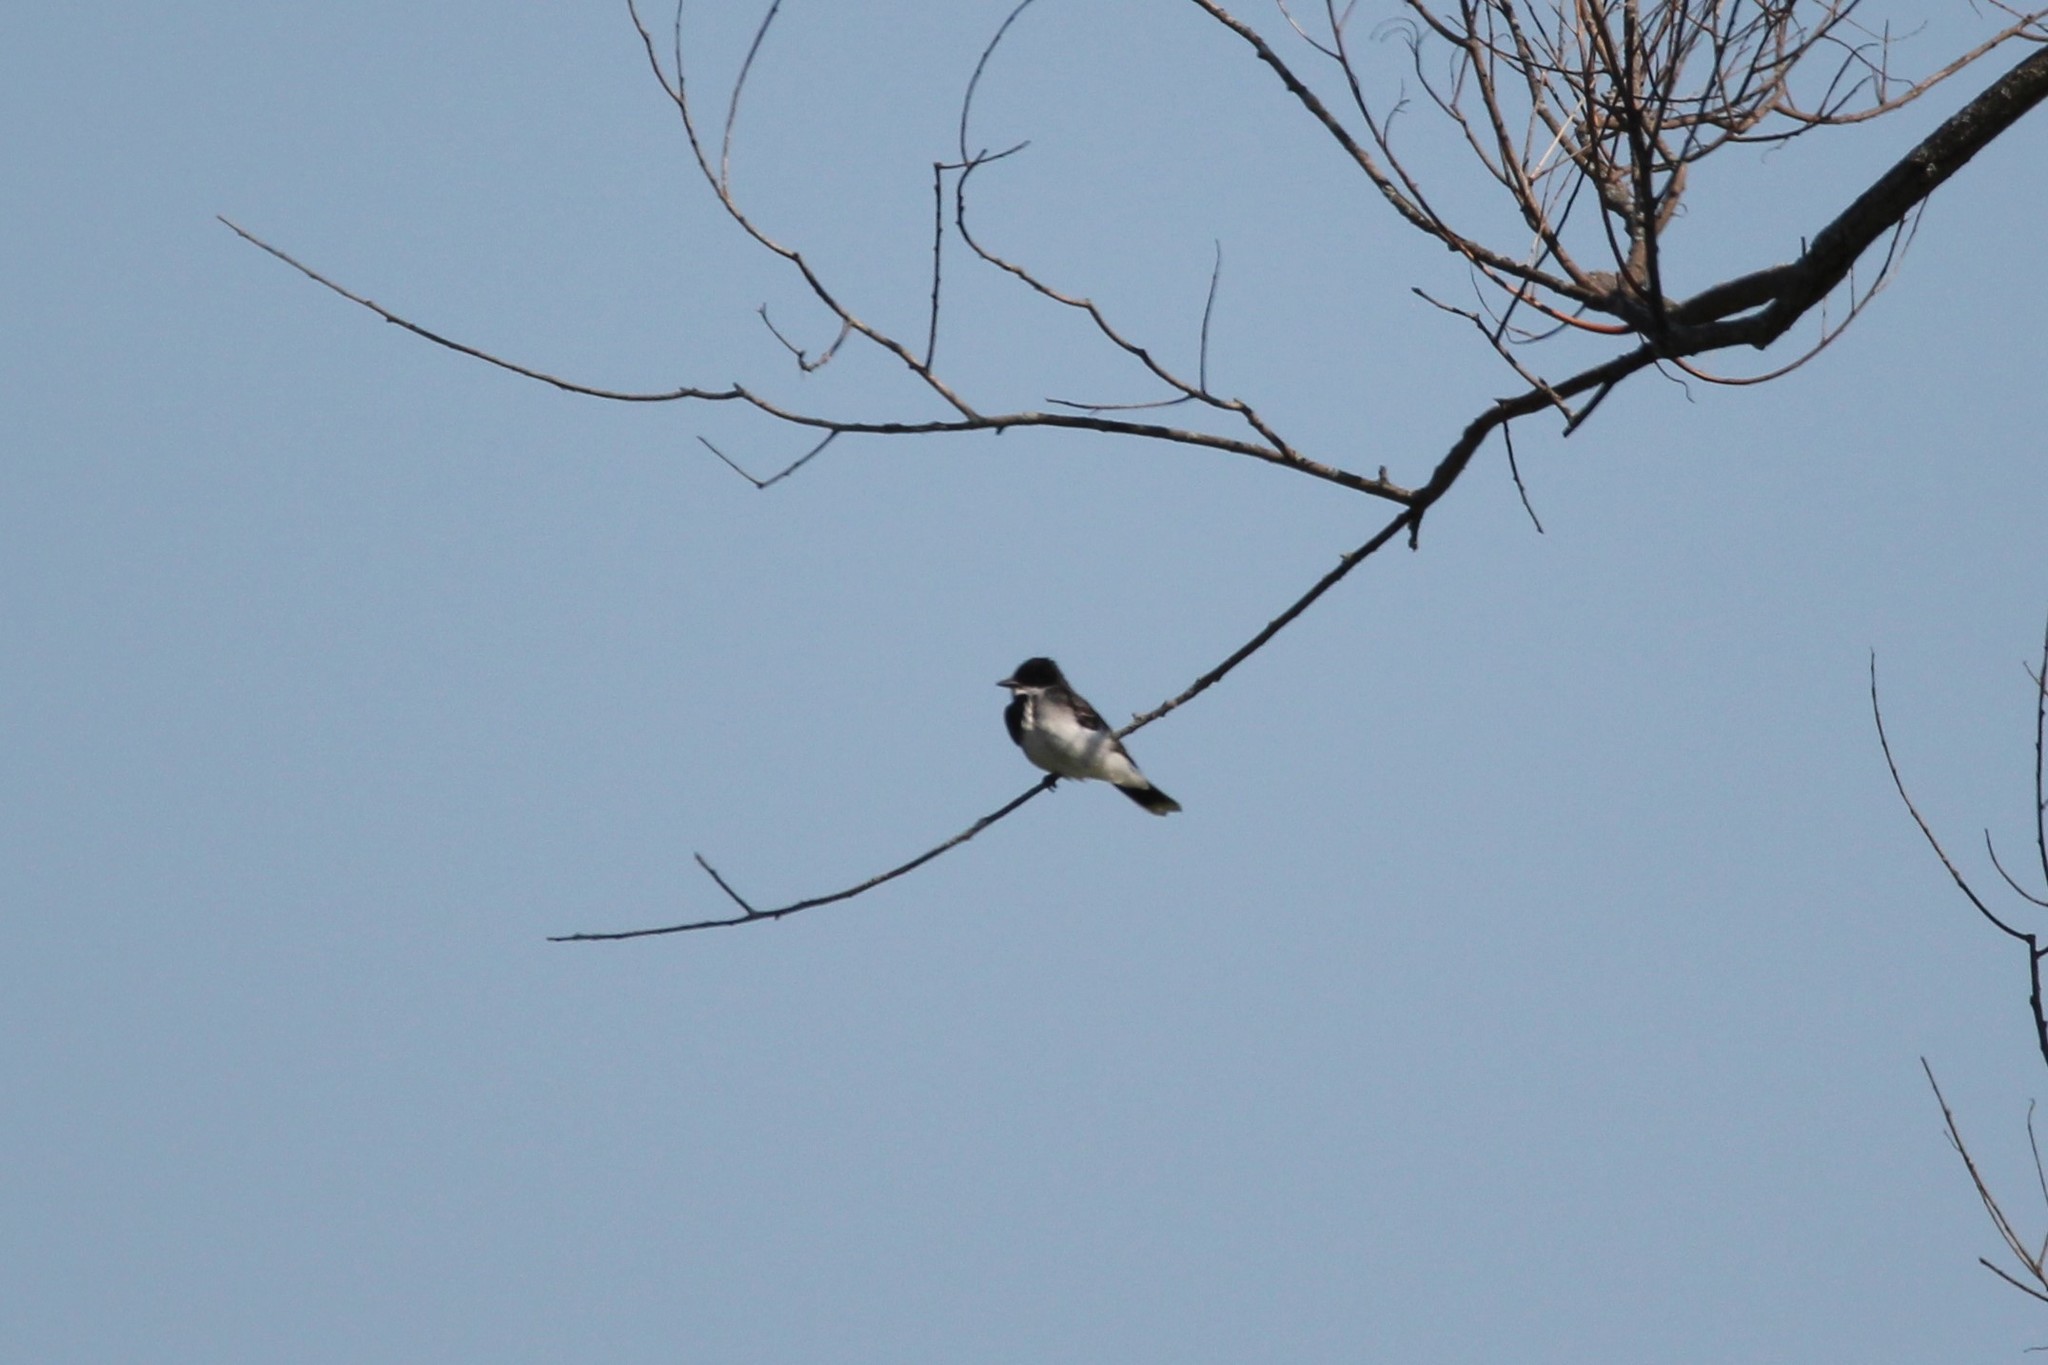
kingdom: Animalia
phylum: Chordata
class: Aves
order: Passeriformes
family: Tyrannidae
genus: Tyrannus
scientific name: Tyrannus tyrannus
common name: Eastern kingbird
